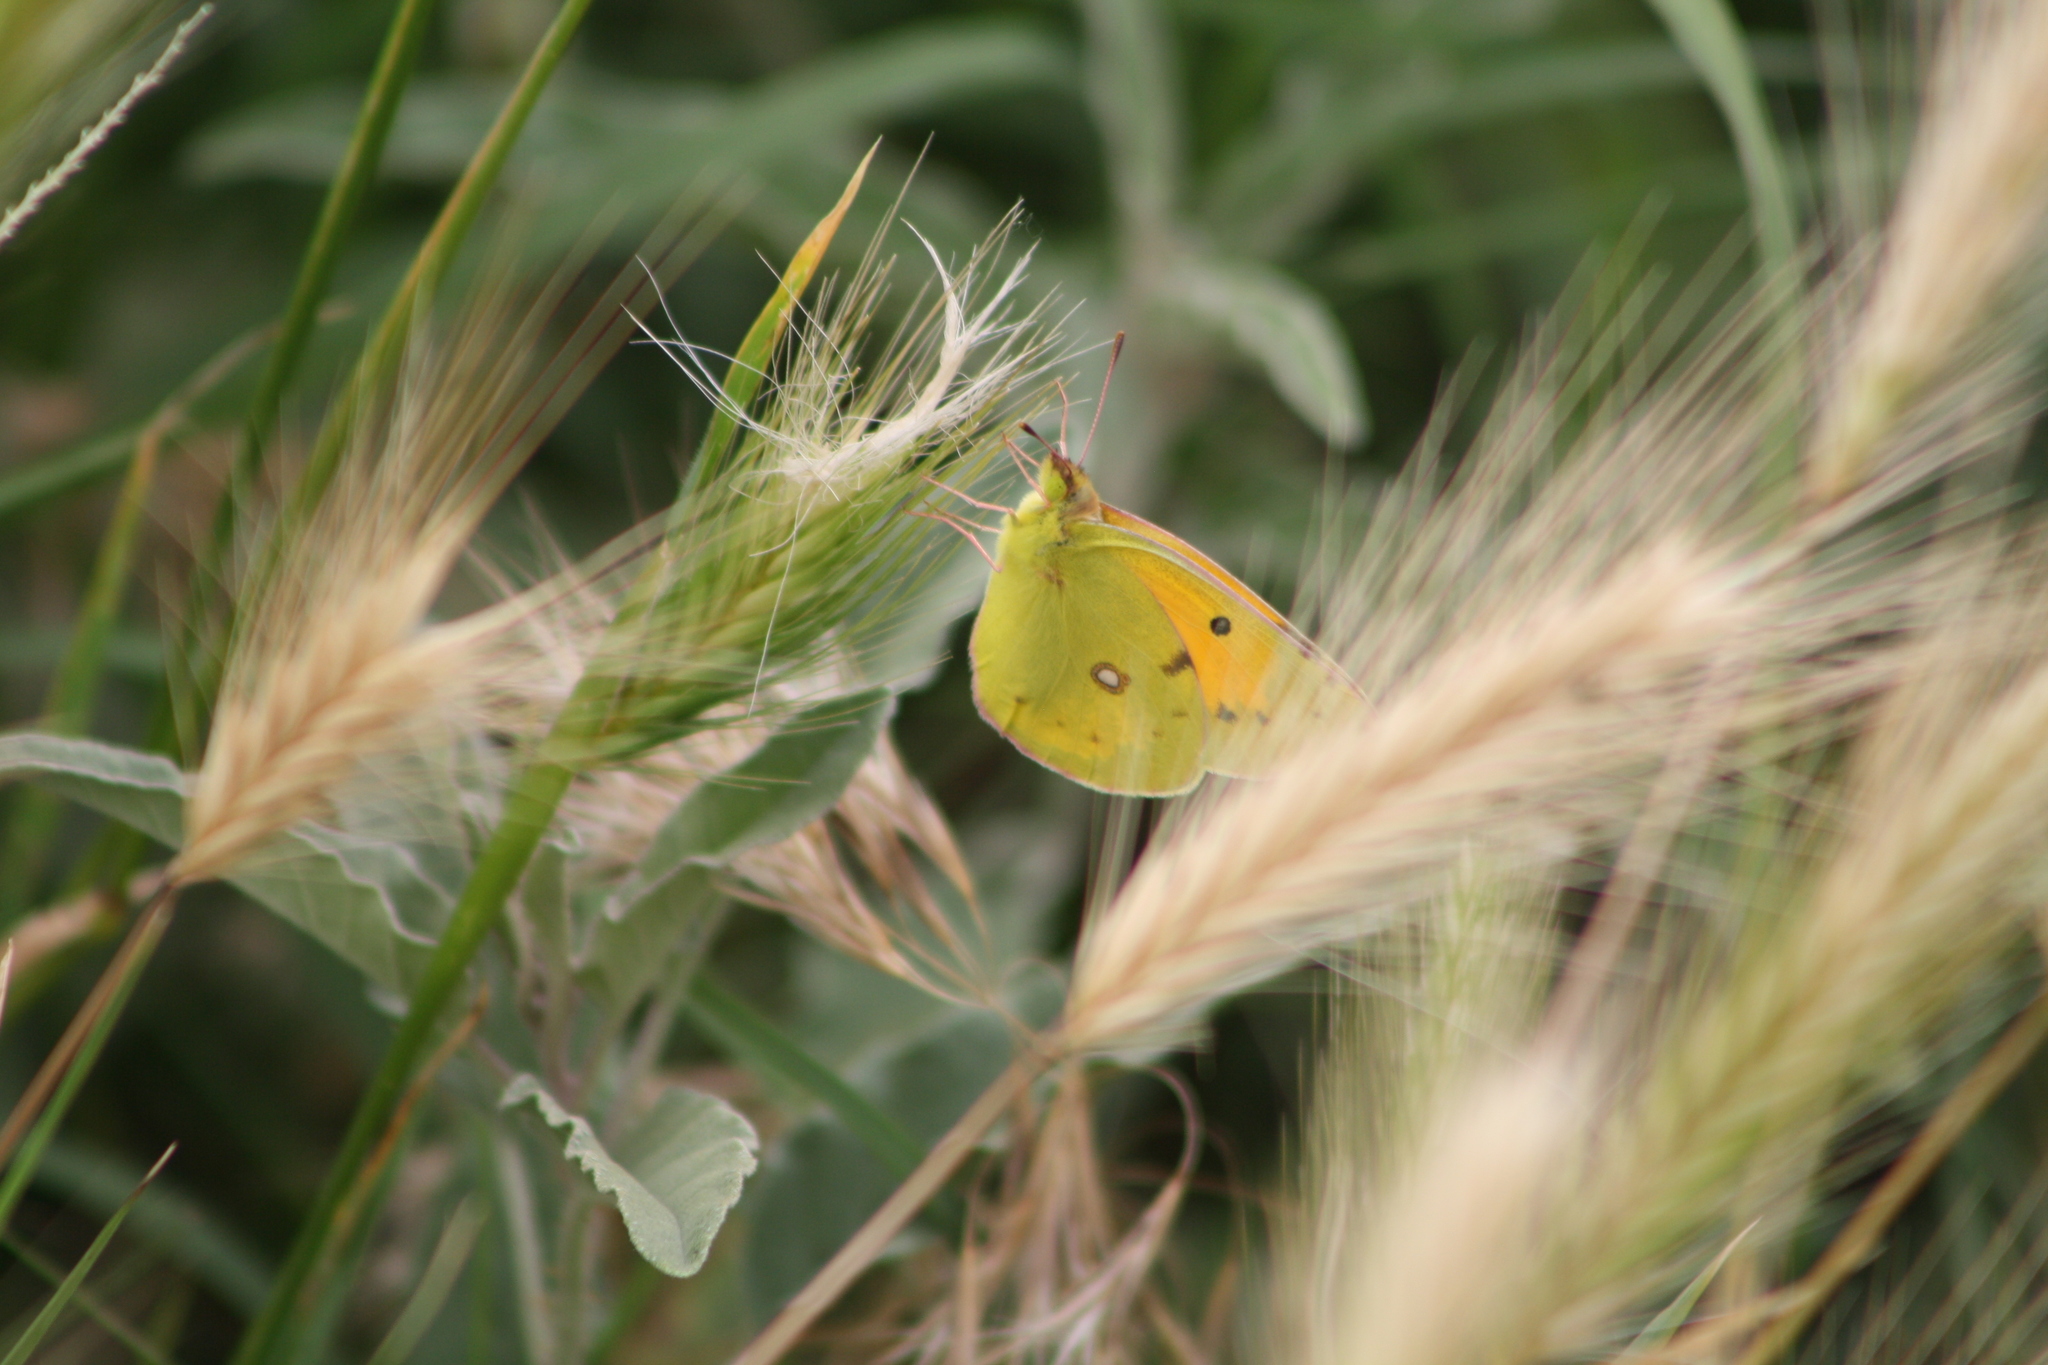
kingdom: Animalia
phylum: Arthropoda
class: Insecta
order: Lepidoptera
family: Pieridae
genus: Colias
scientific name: Colias croceus
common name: Clouded yellow
